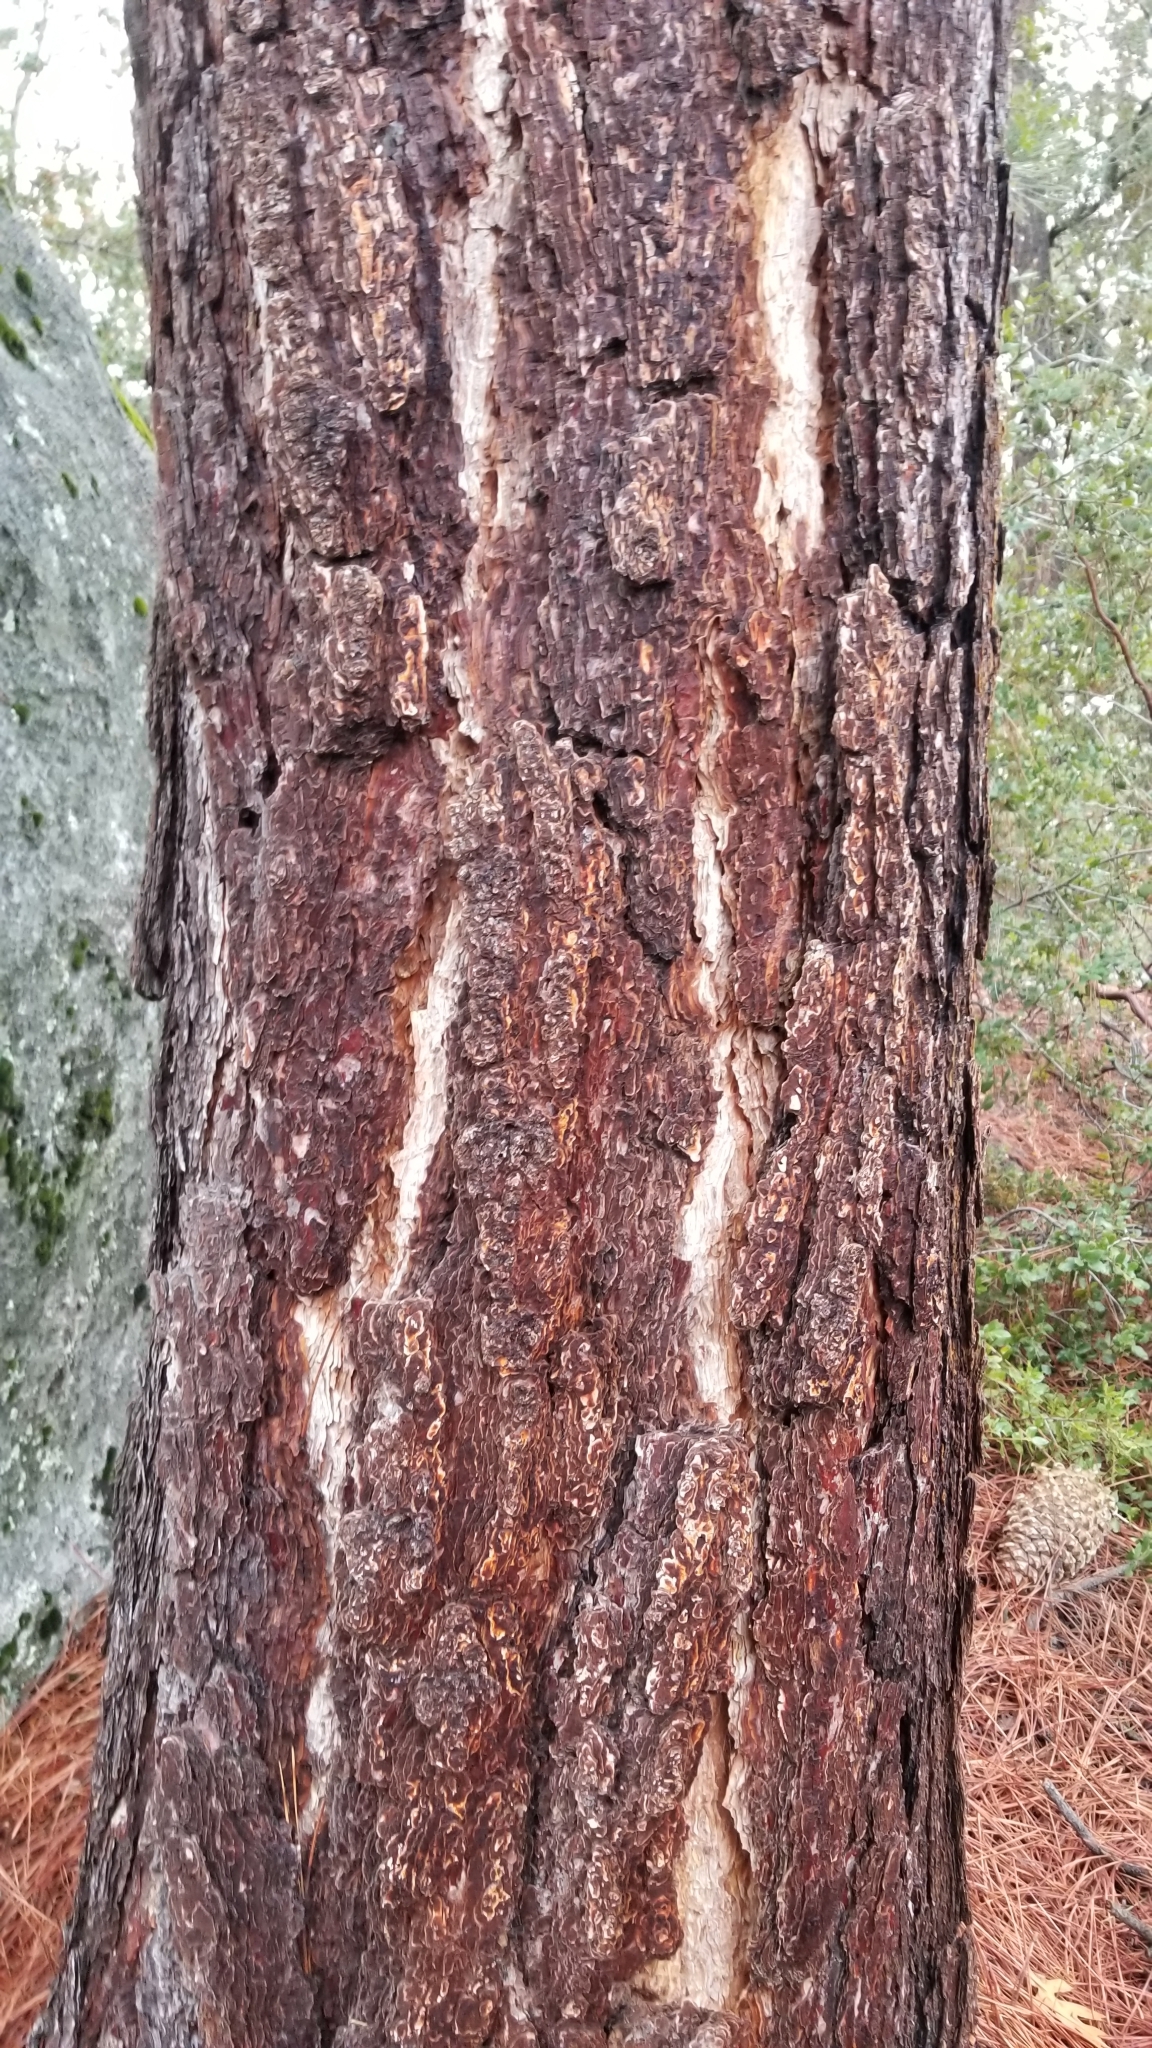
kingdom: Plantae
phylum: Tracheophyta
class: Pinopsida
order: Pinales
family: Pinaceae
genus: Pinus
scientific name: Pinus coulteri
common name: Coulter pine
